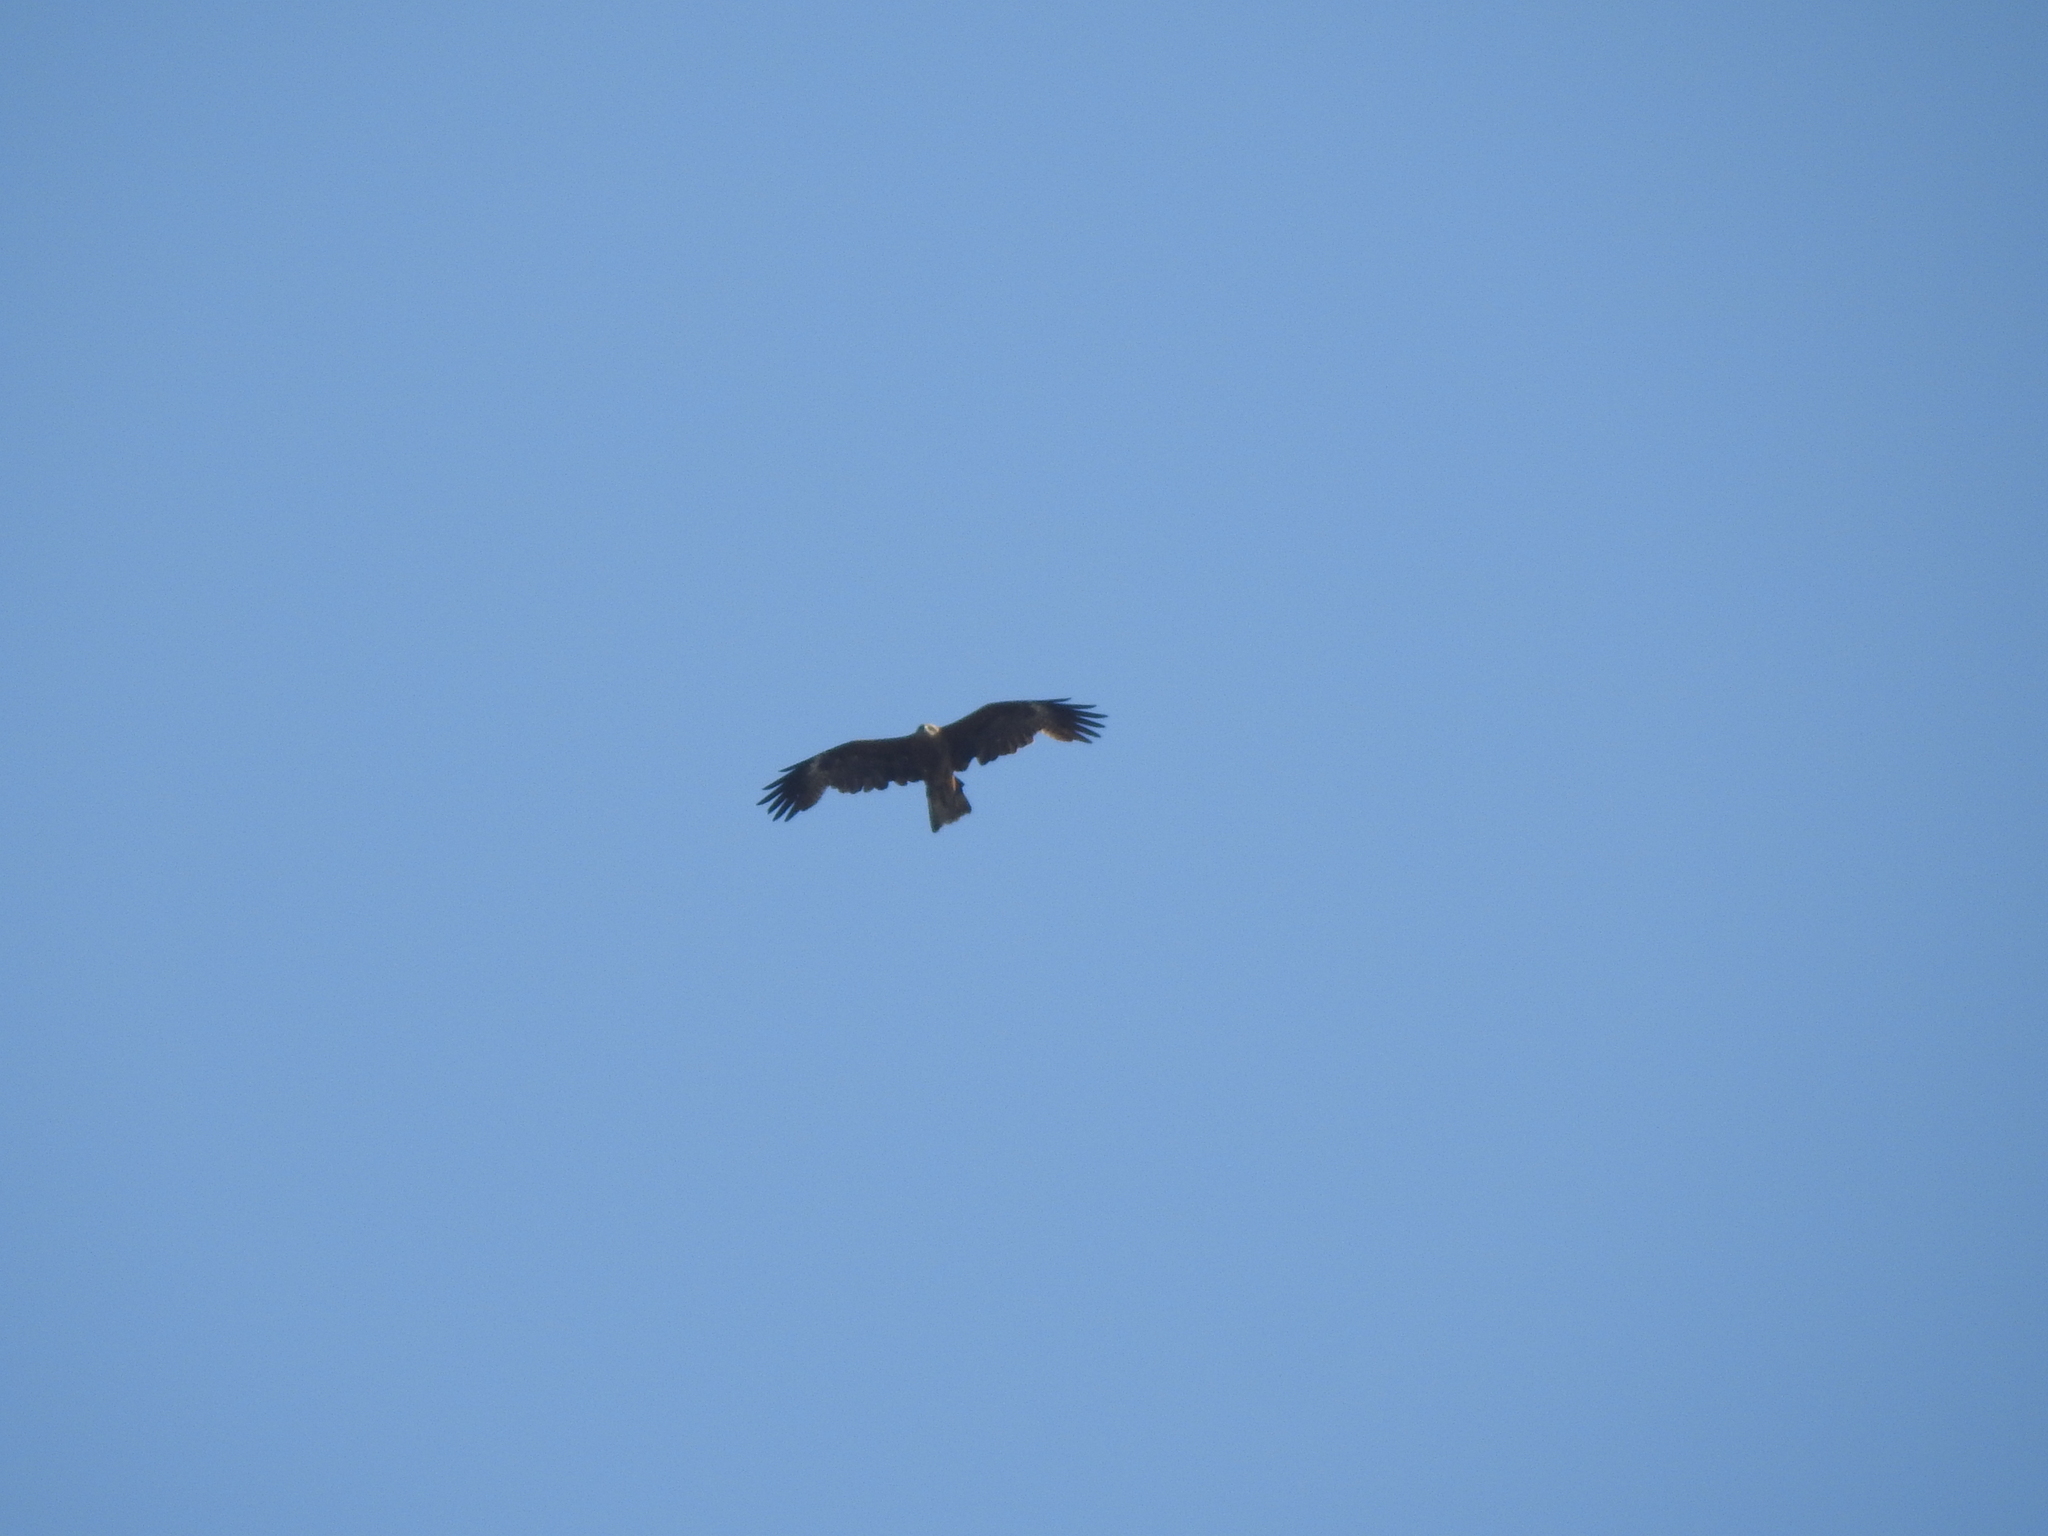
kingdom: Animalia
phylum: Chordata
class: Aves
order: Accipitriformes
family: Accipitridae
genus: Milvus
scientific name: Milvus migrans
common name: Black kite
